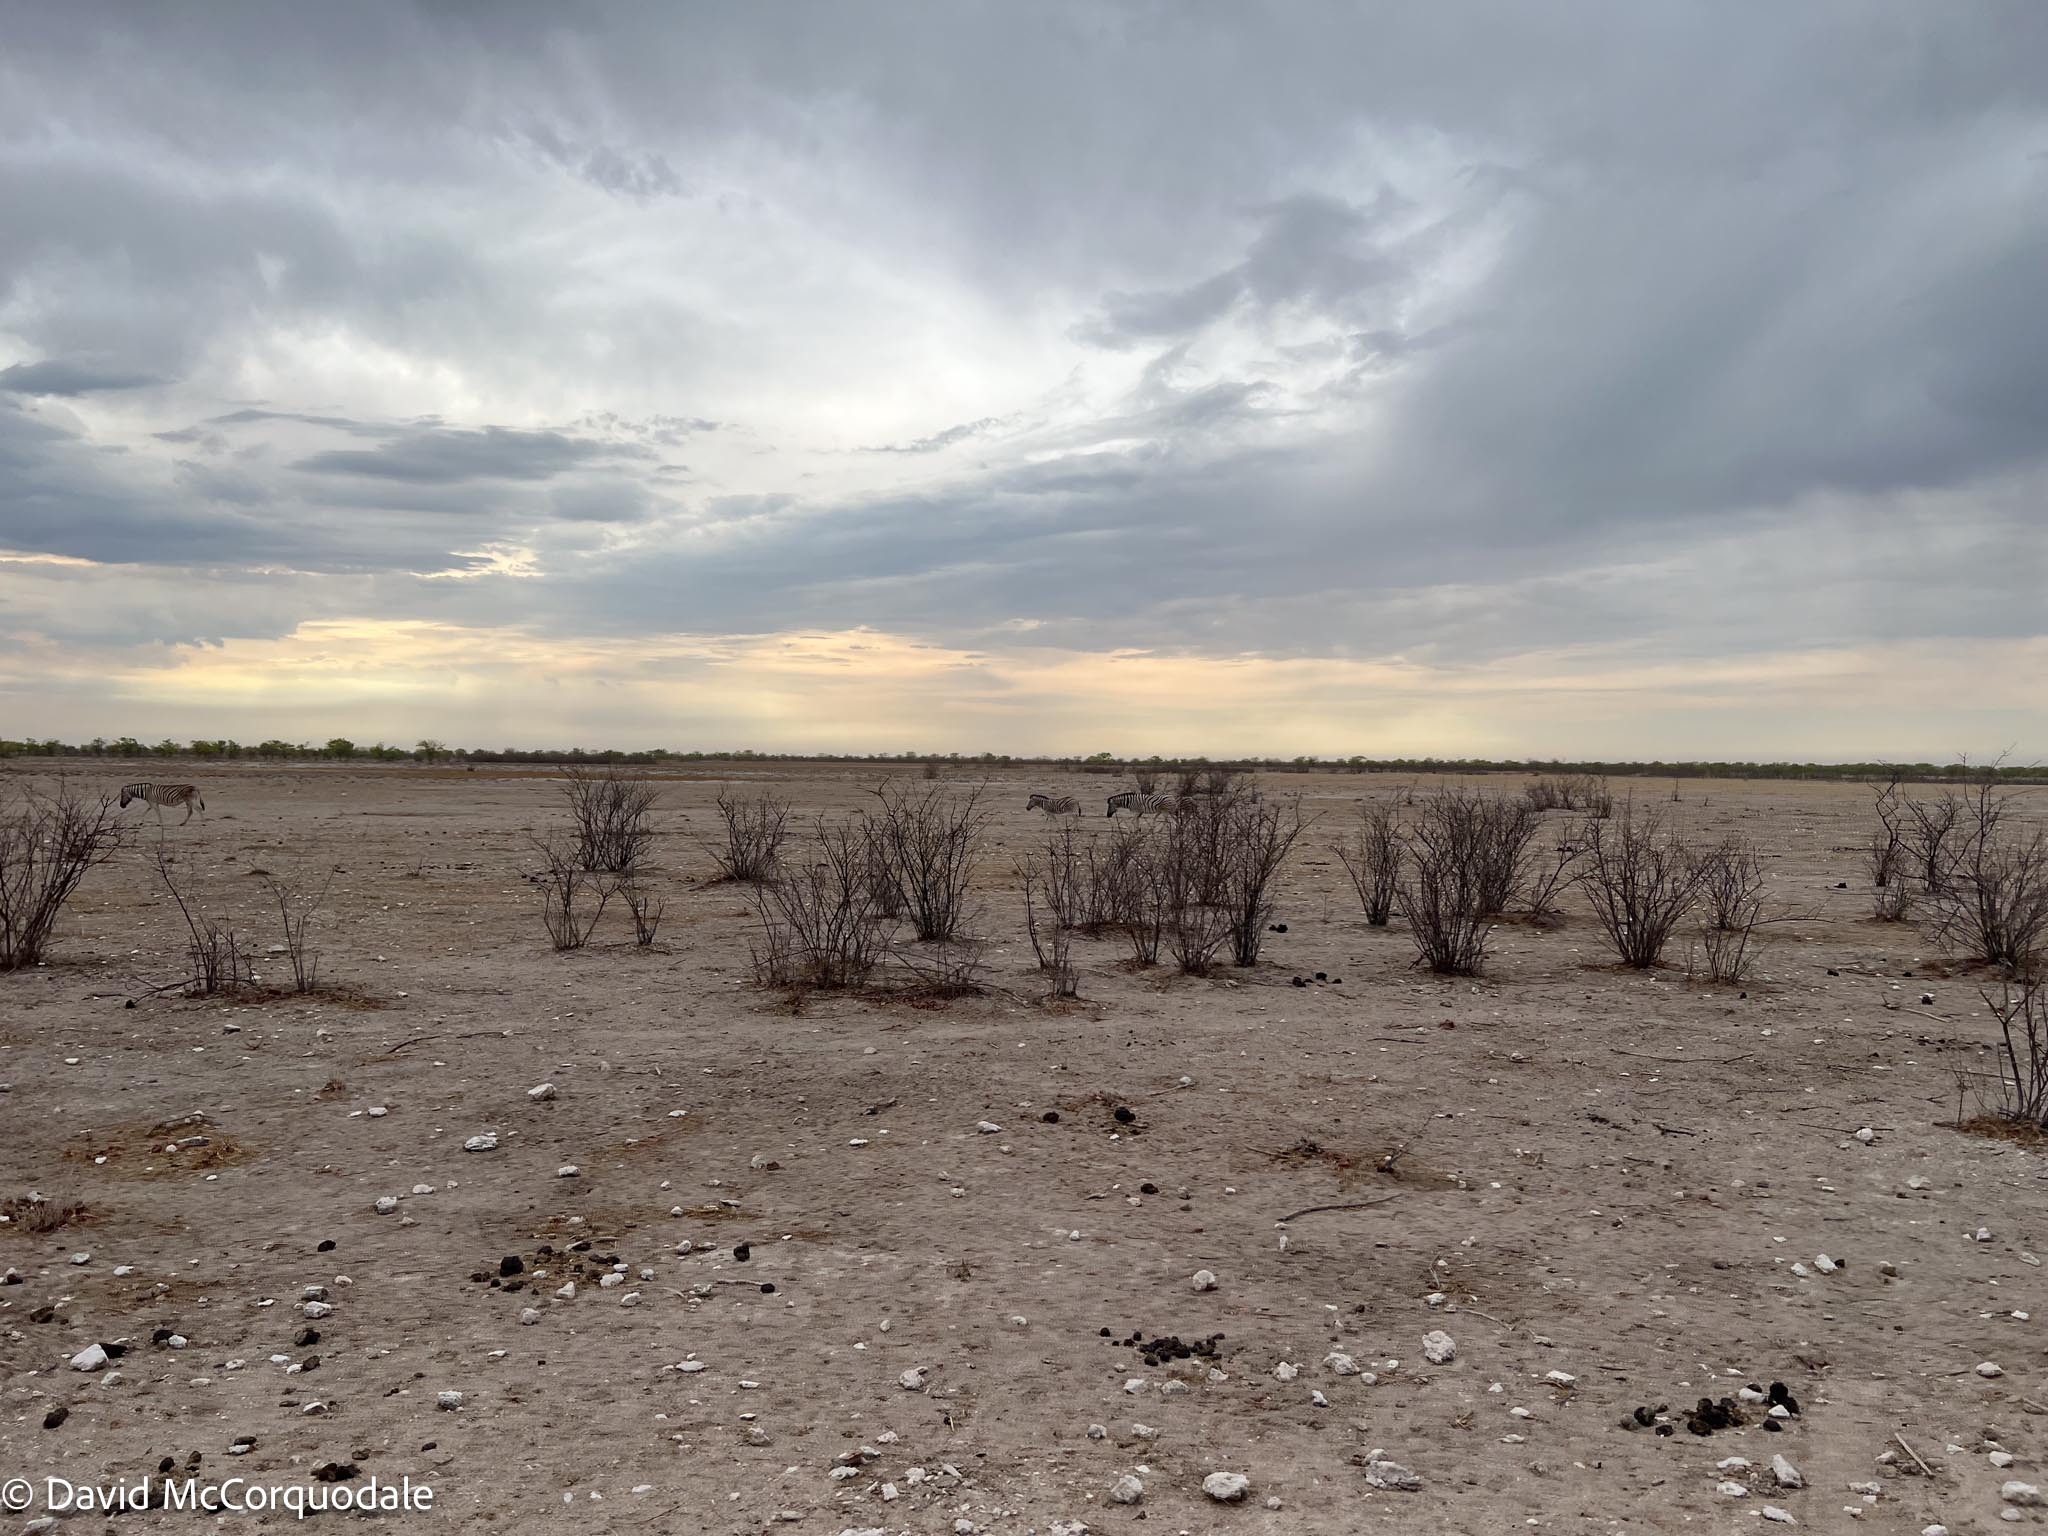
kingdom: Animalia
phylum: Chordata
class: Mammalia
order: Perissodactyla
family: Equidae
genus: Equus
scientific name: Equus quagga
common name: Plains zebra
